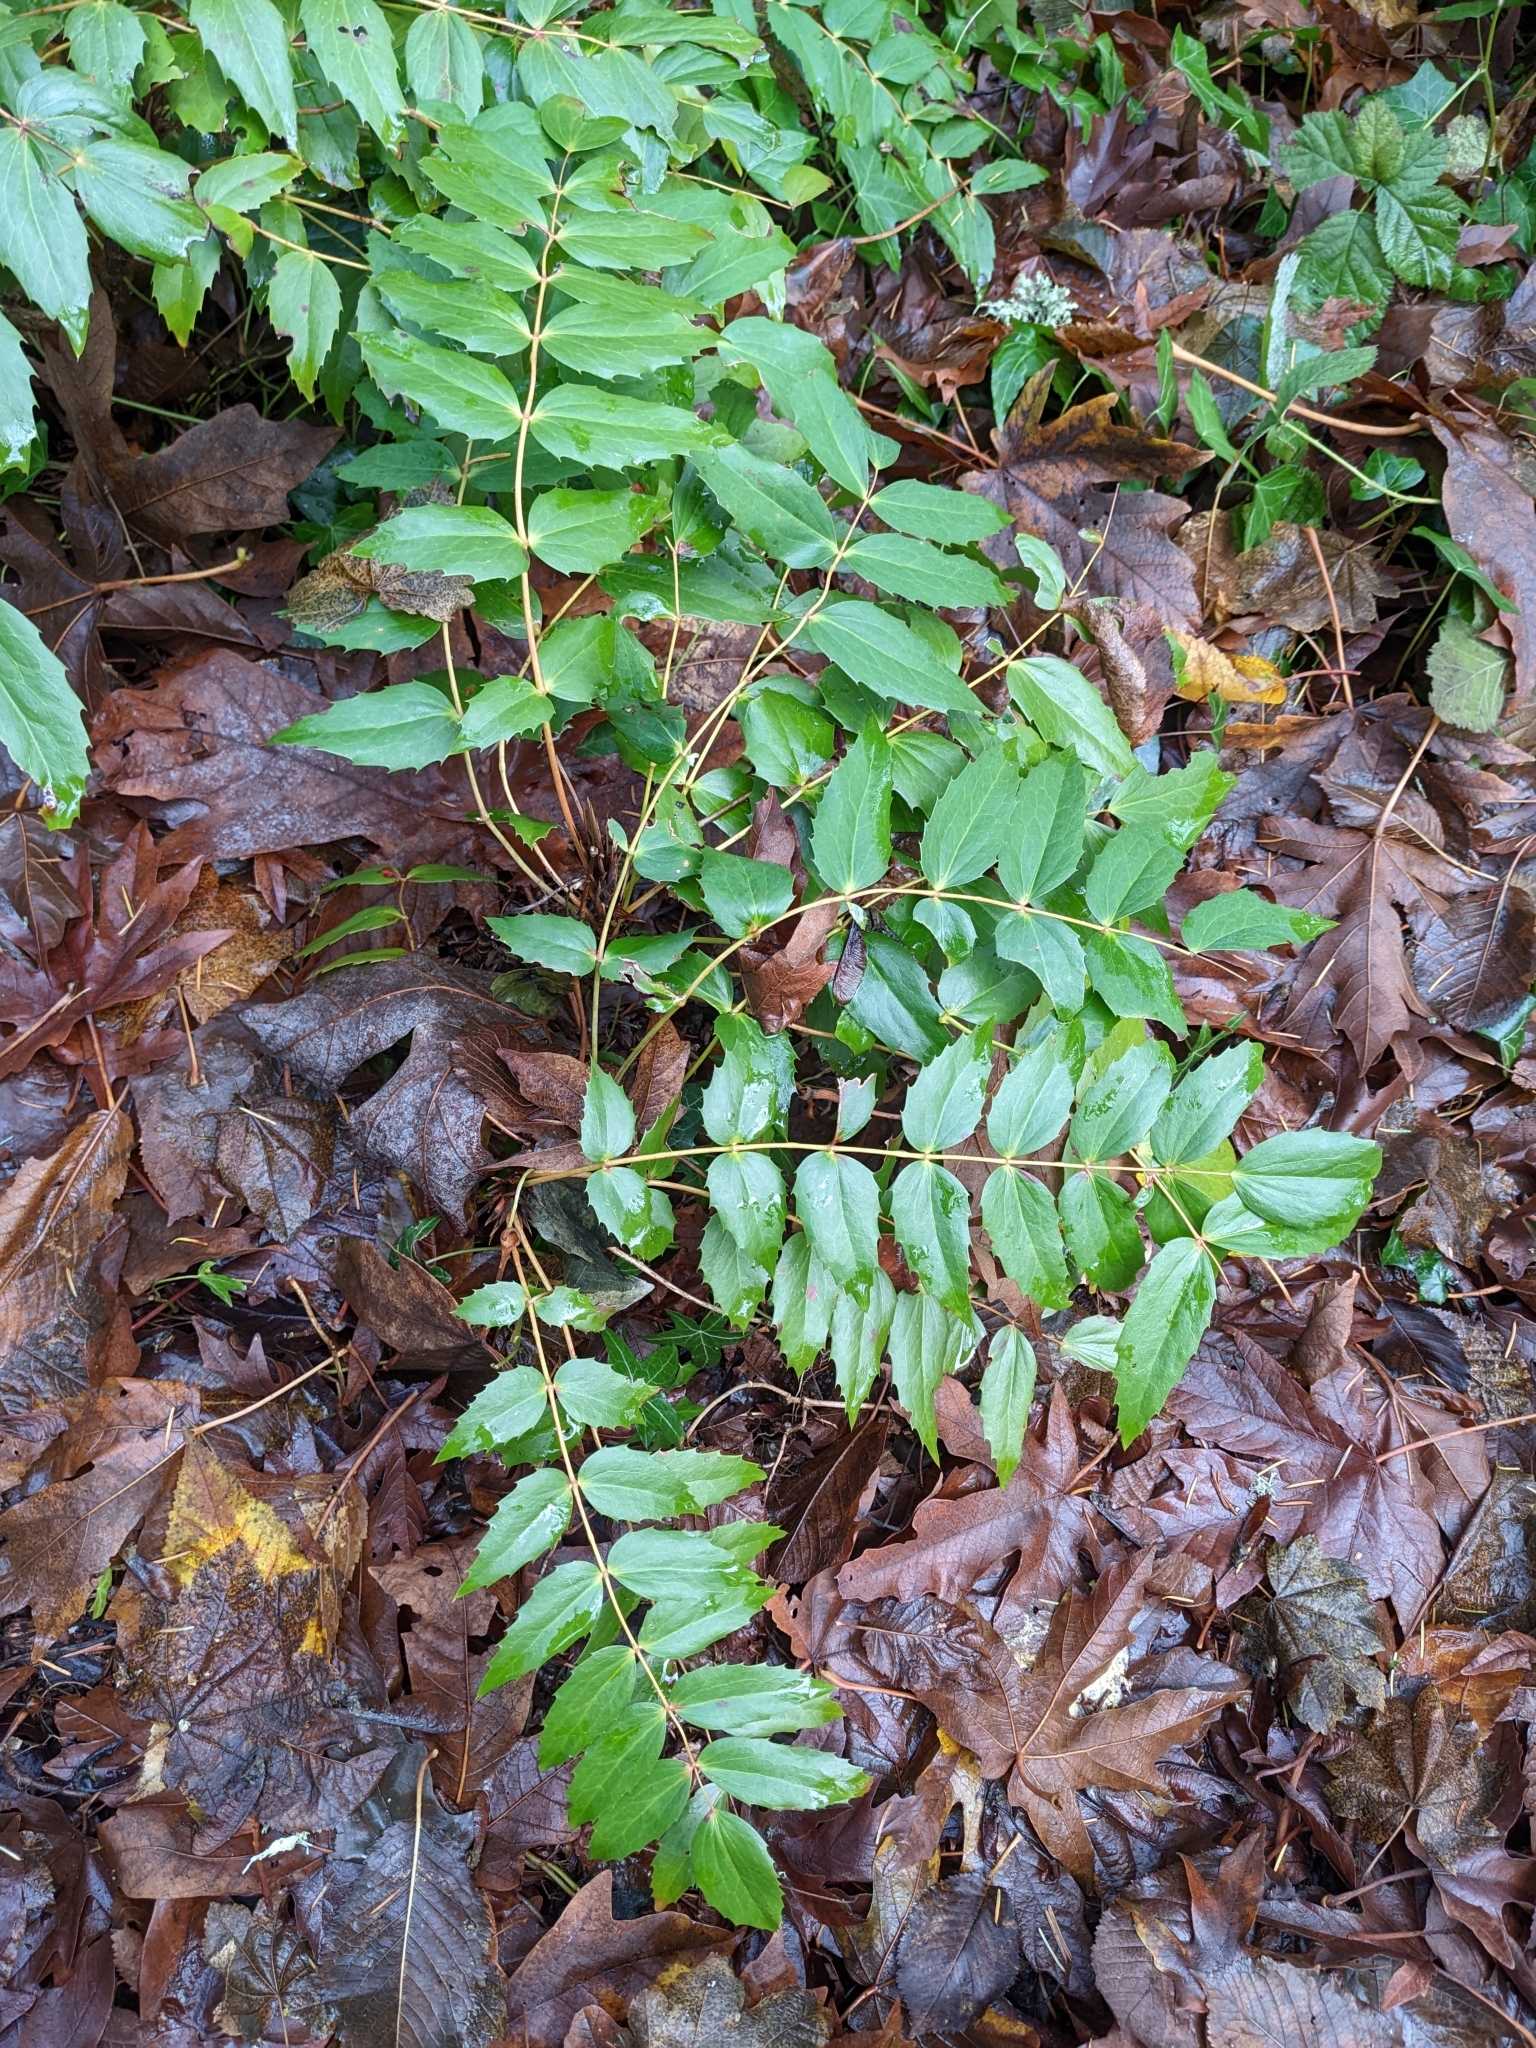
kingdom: Plantae
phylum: Tracheophyta
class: Magnoliopsida
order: Ranunculales
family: Berberidaceae
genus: Mahonia
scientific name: Mahonia nervosa
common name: Cascade oregon-grape
